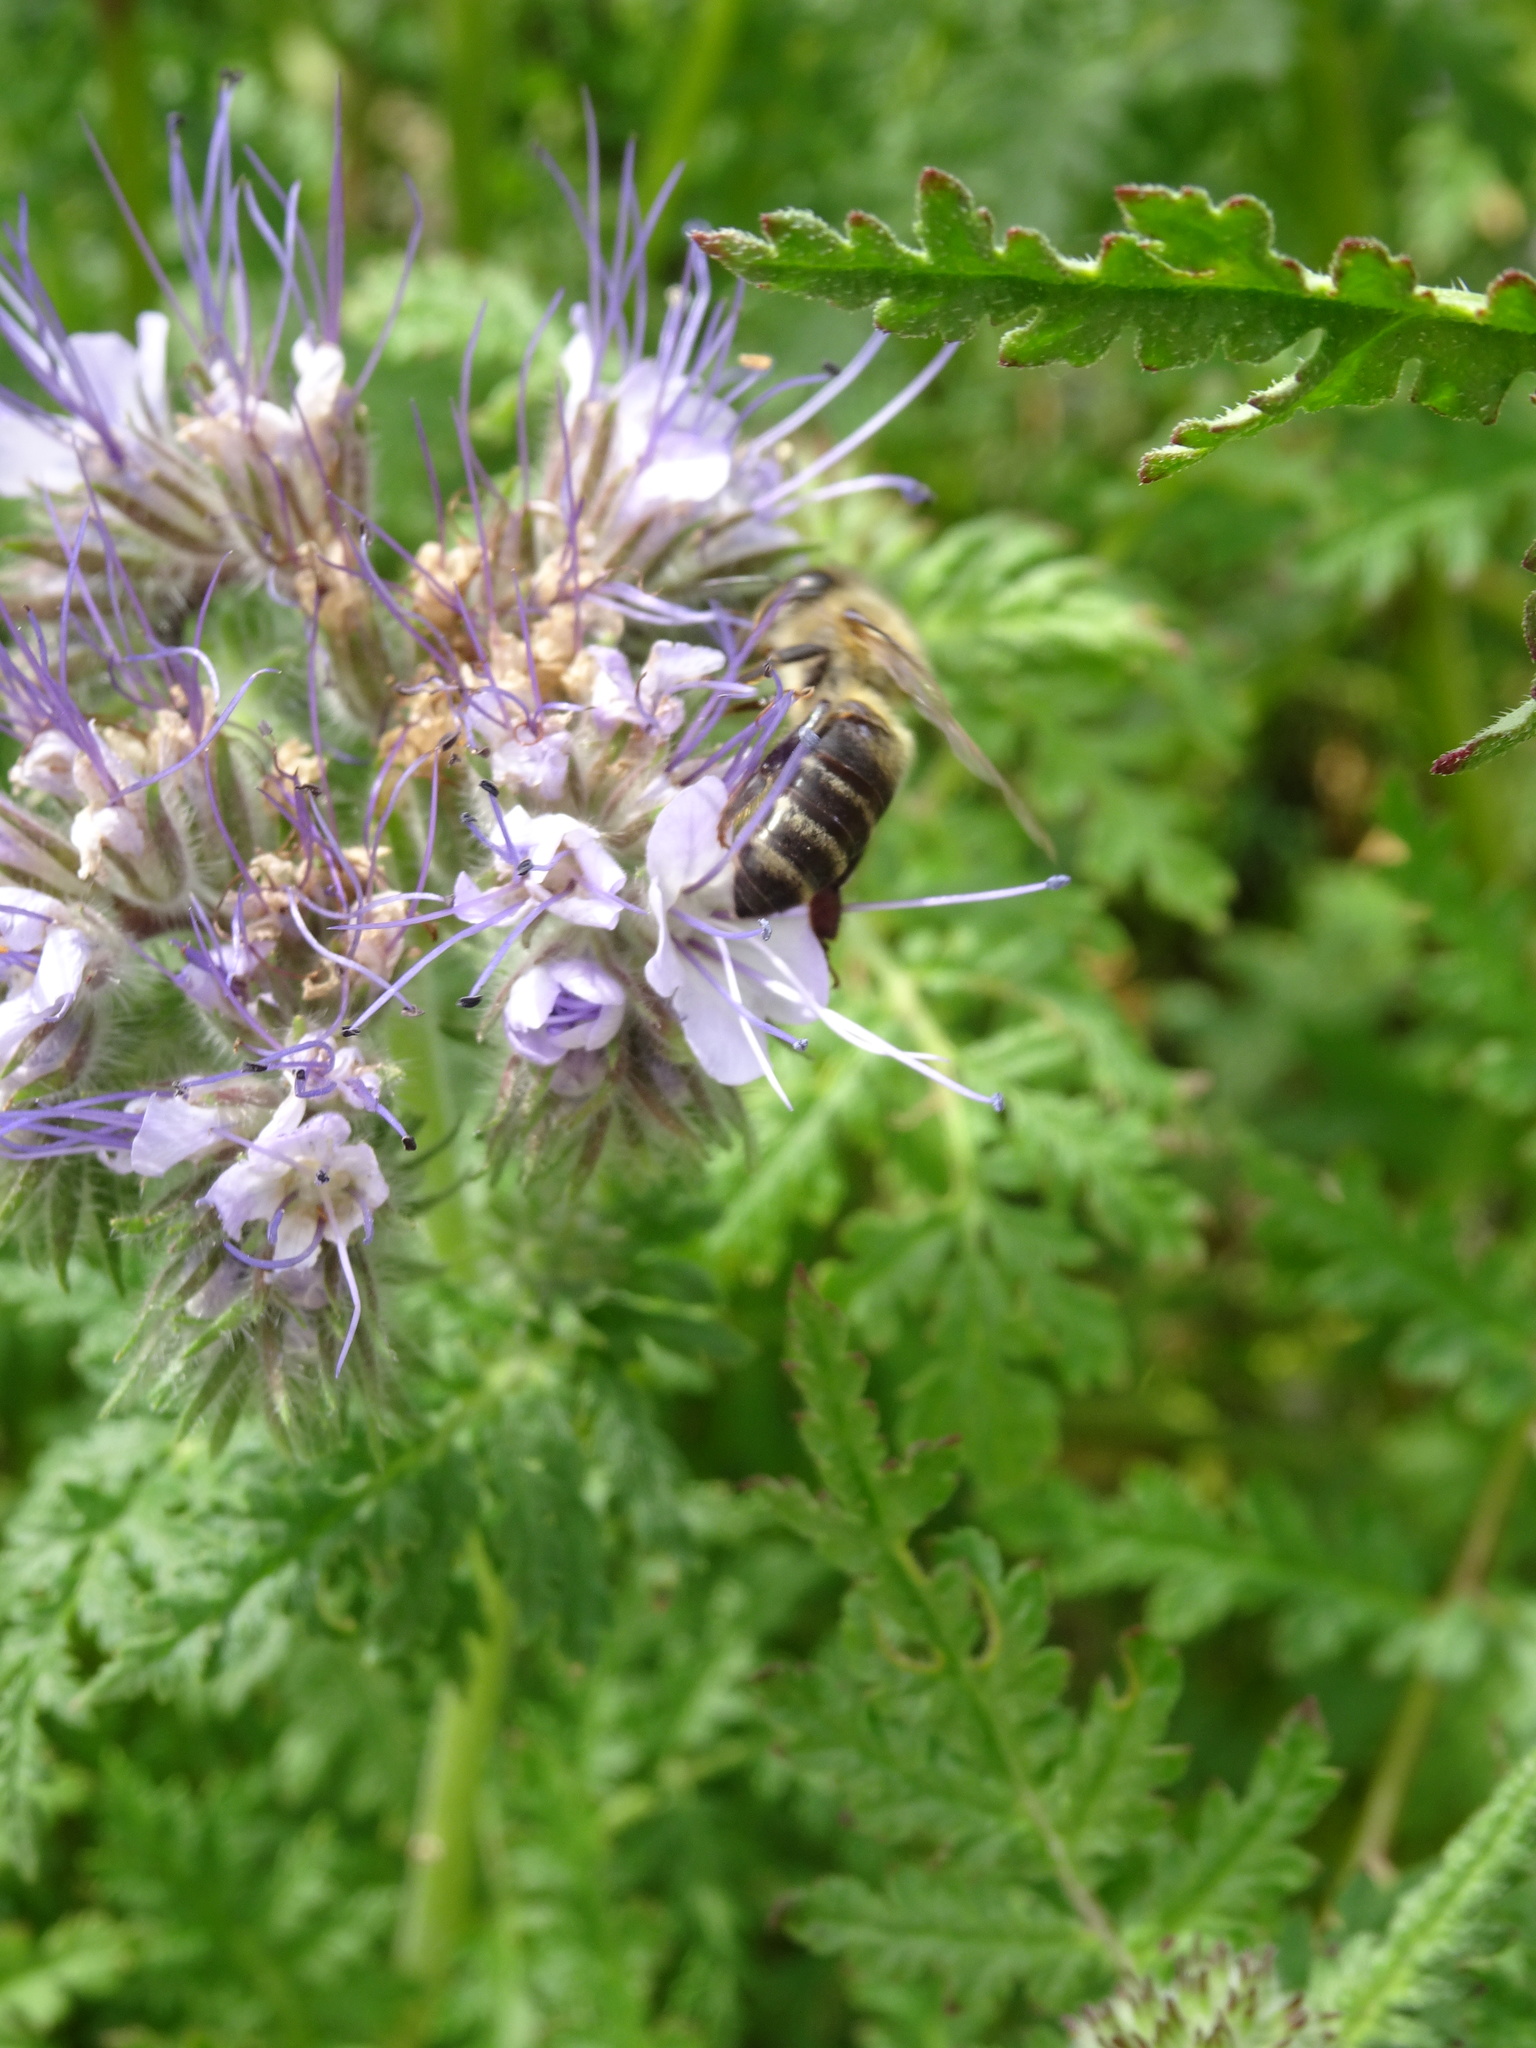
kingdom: Animalia
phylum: Arthropoda
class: Insecta
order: Hymenoptera
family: Apidae
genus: Apis
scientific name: Apis mellifera
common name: Honey bee
